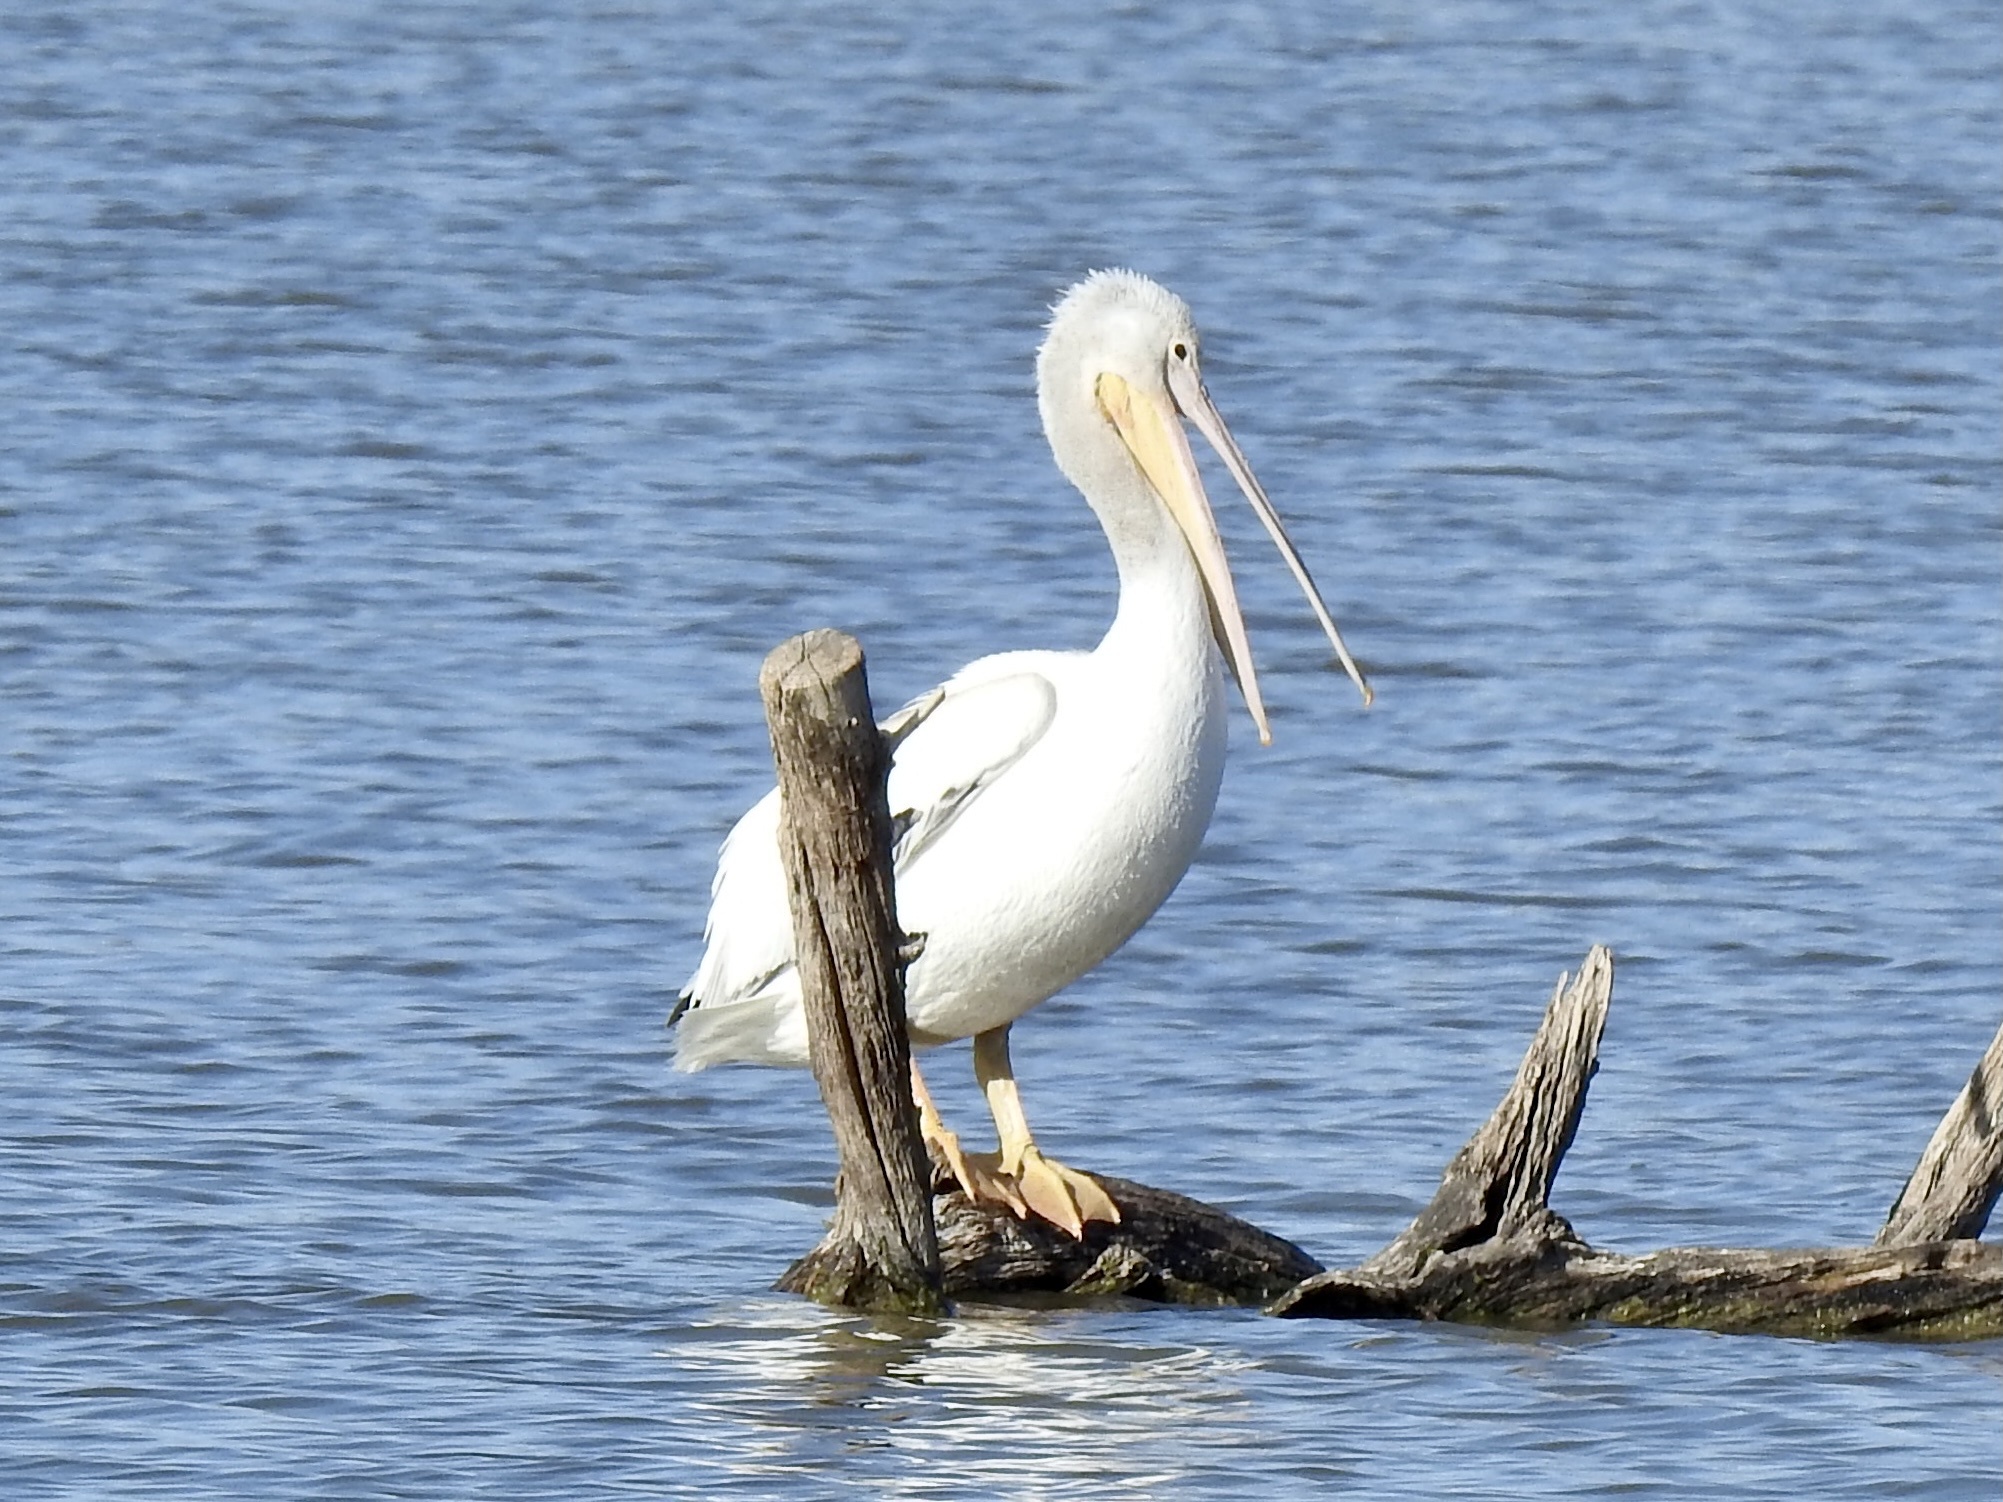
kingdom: Animalia
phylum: Chordata
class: Aves
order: Pelecaniformes
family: Pelecanidae
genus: Pelecanus
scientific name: Pelecanus erythrorhynchos
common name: American white pelican
